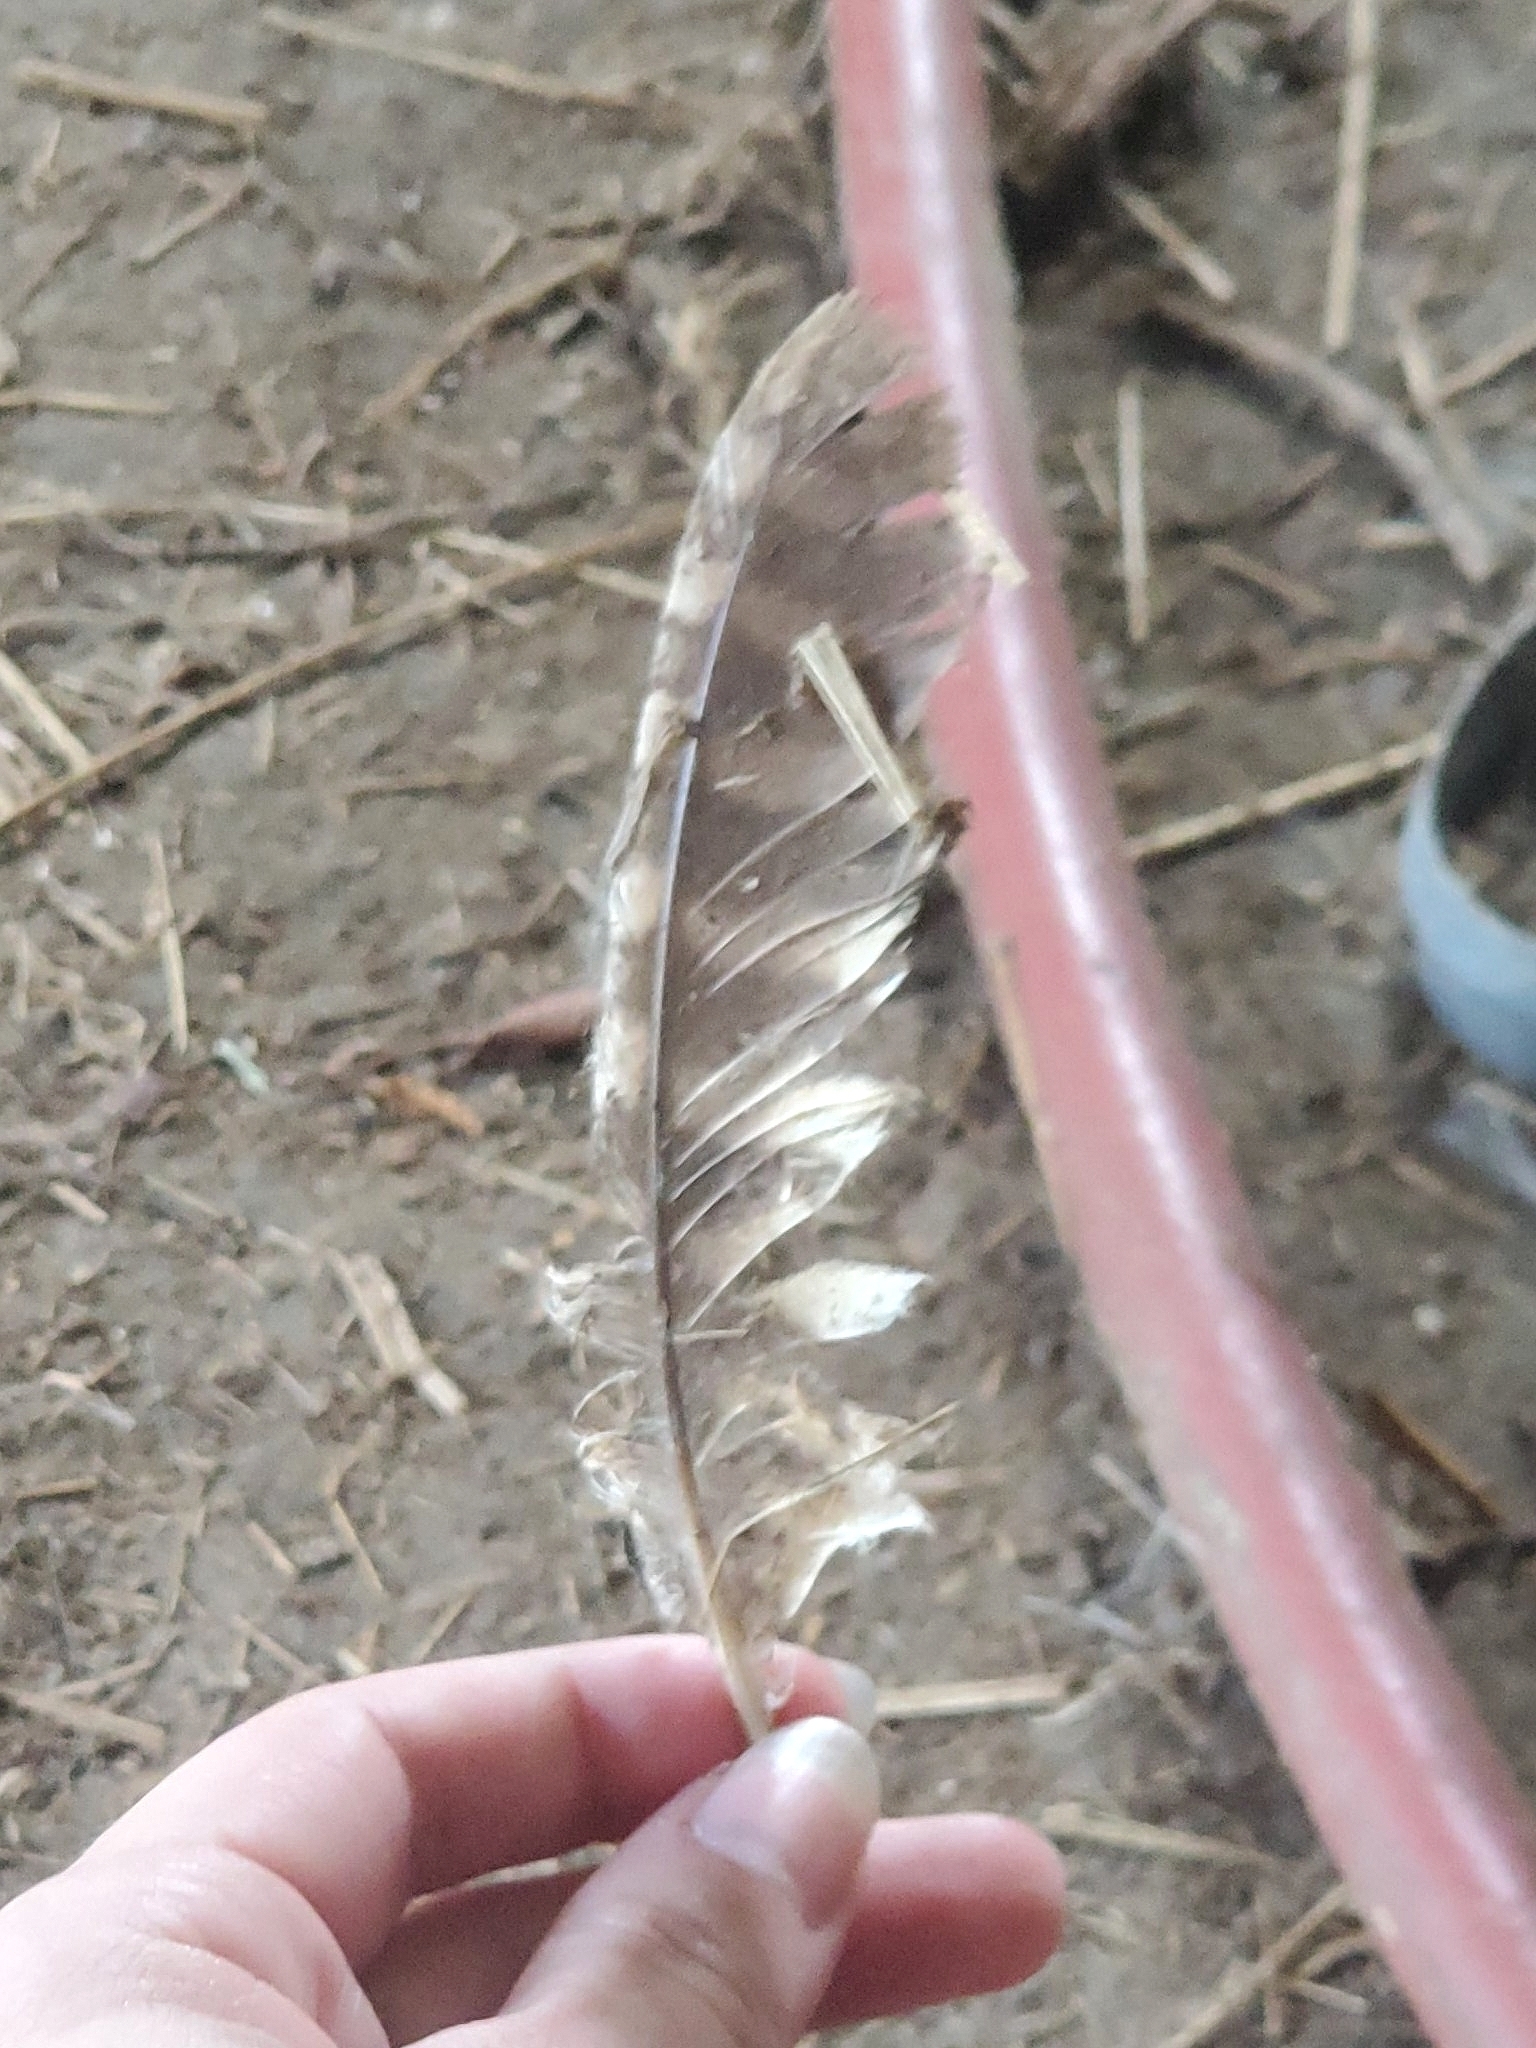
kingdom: Animalia
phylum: Chordata
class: Aves
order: Strigiformes
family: Strigidae
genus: Megascops
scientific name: Megascops asio
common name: Eastern screech-owl
